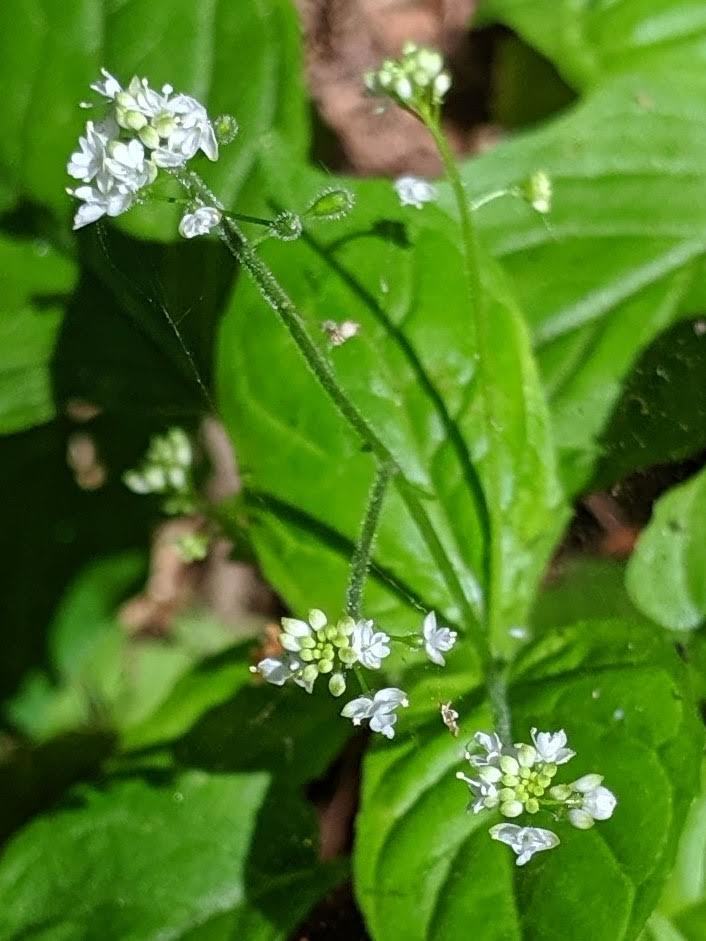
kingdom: Plantae
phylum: Tracheophyta
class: Magnoliopsida
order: Myrtales
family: Onagraceae
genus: Circaea
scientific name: Circaea alpina
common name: Alpine enchanter's-nightshade
